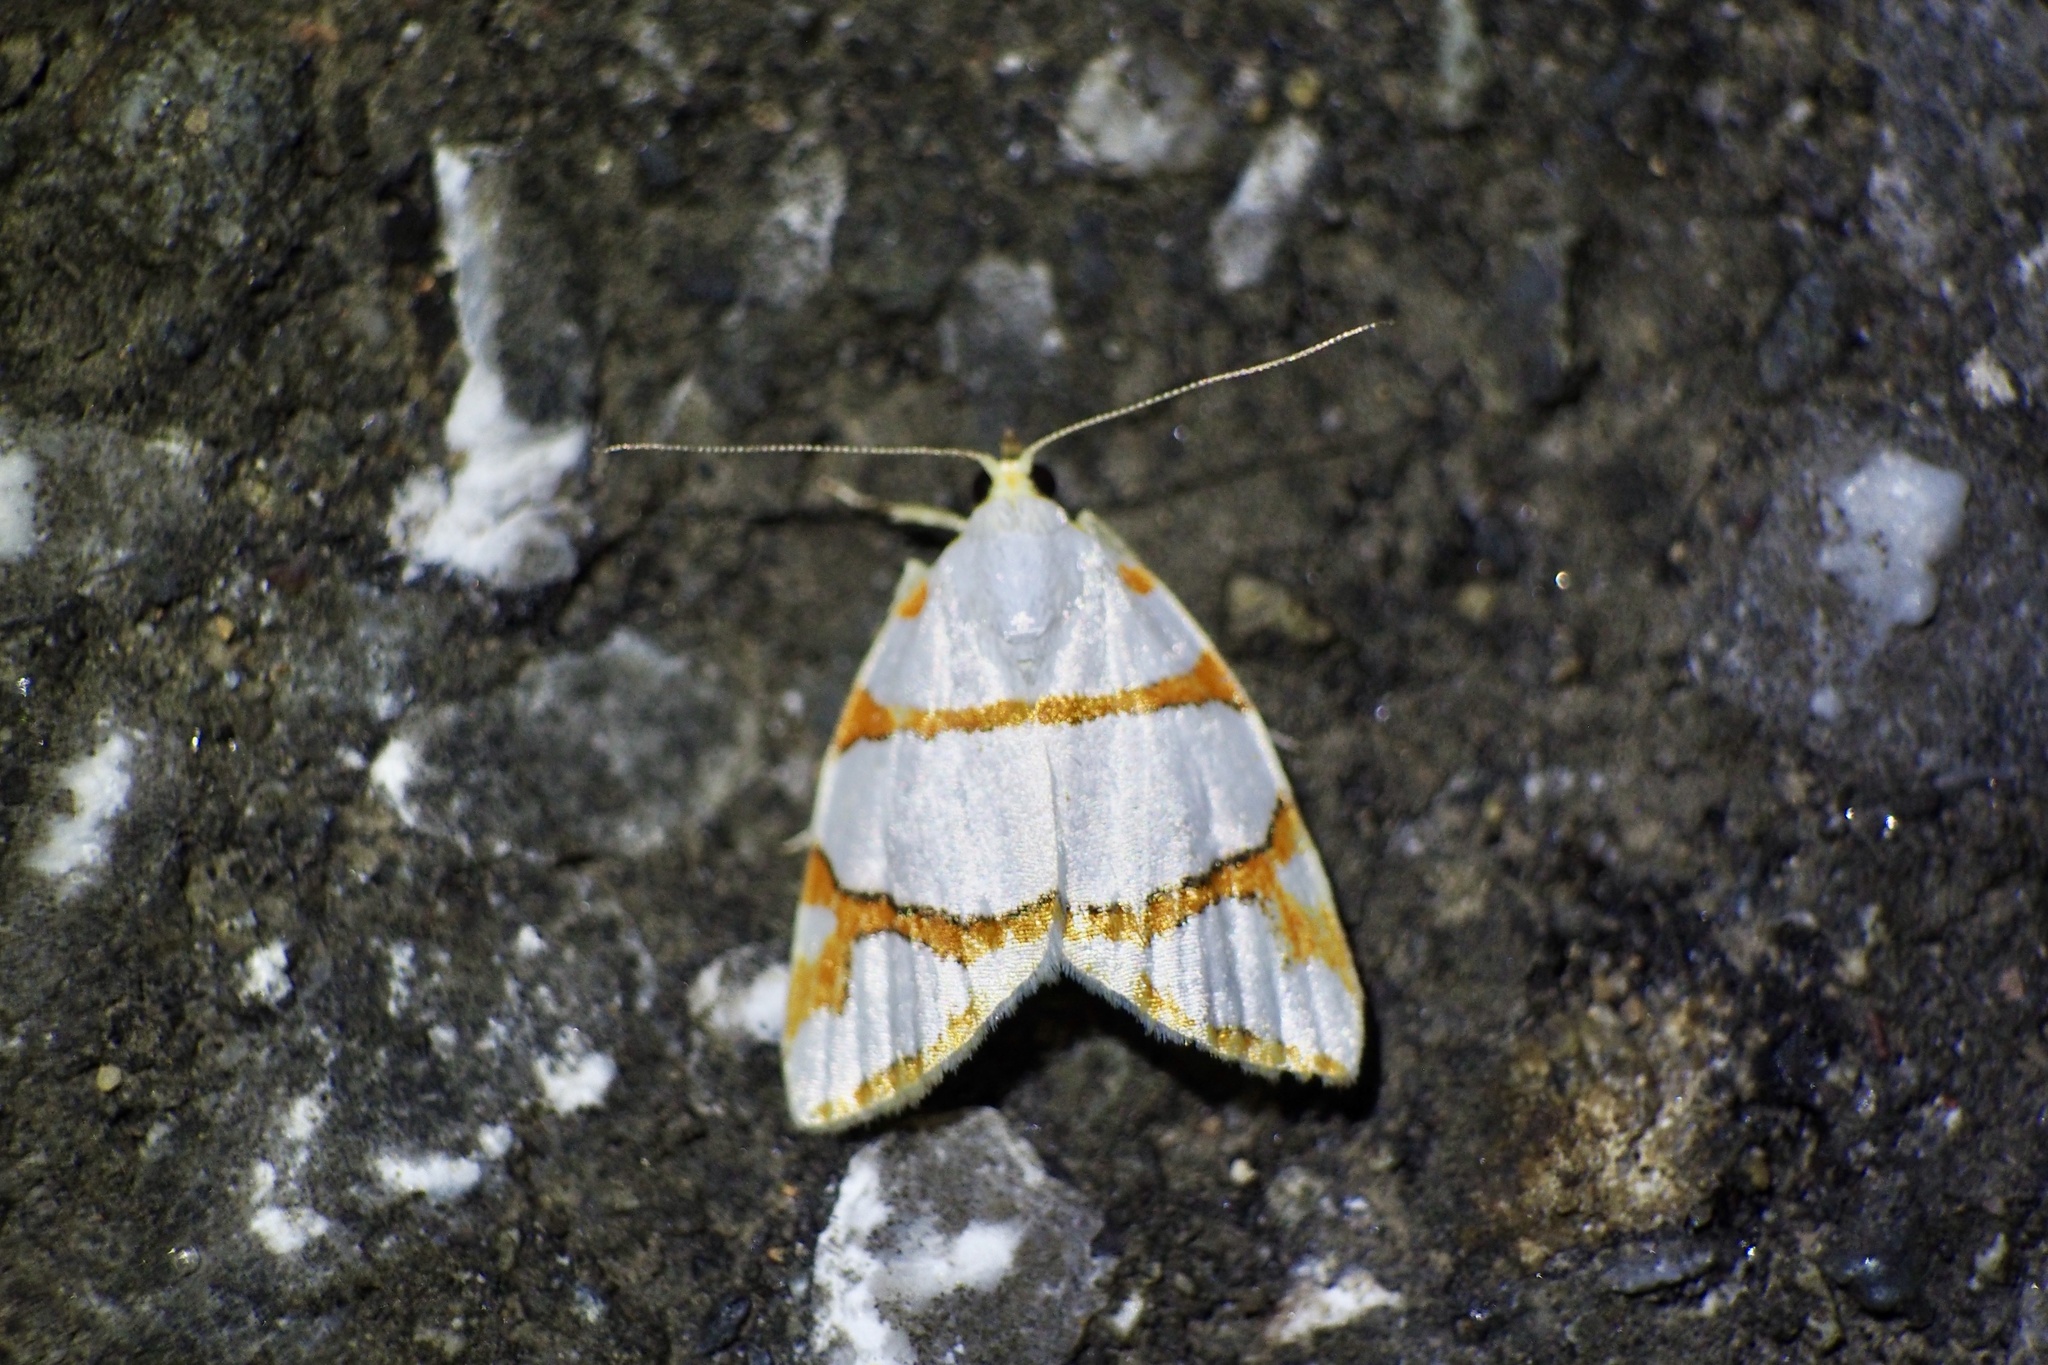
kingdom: Animalia
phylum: Arthropoda
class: Insecta
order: Lepidoptera
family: Nolidae
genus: Ariolica
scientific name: Ariolica argentea
